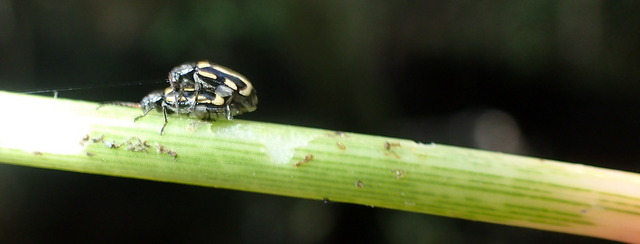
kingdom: Animalia
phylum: Arthropoda
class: Insecta
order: Coleoptera
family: Chrysomelidae
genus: Agasicles
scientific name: Agasicles hygrophila
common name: Alligatorweed flea beetle
